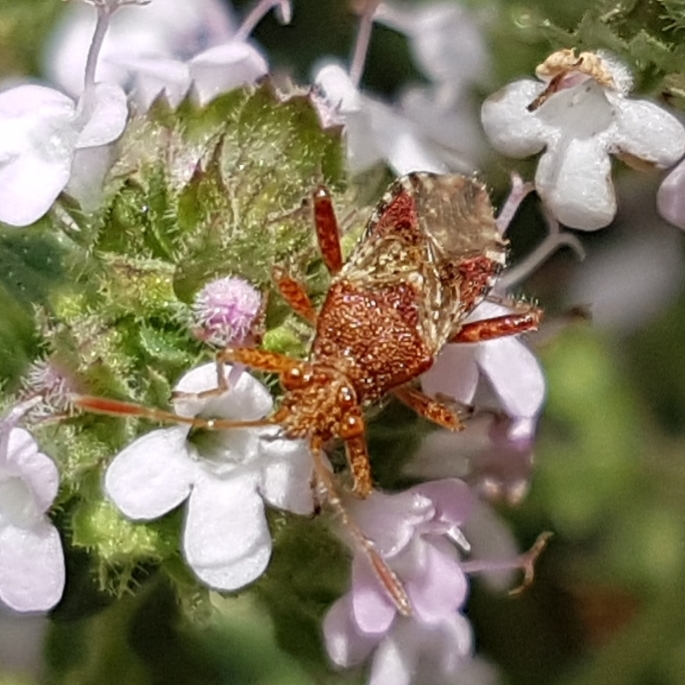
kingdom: Animalia
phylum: Arthropoda
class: Insecta
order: Hemiptera
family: Rhopalidae
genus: Rhopalus
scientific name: Rhopalus subrufus
